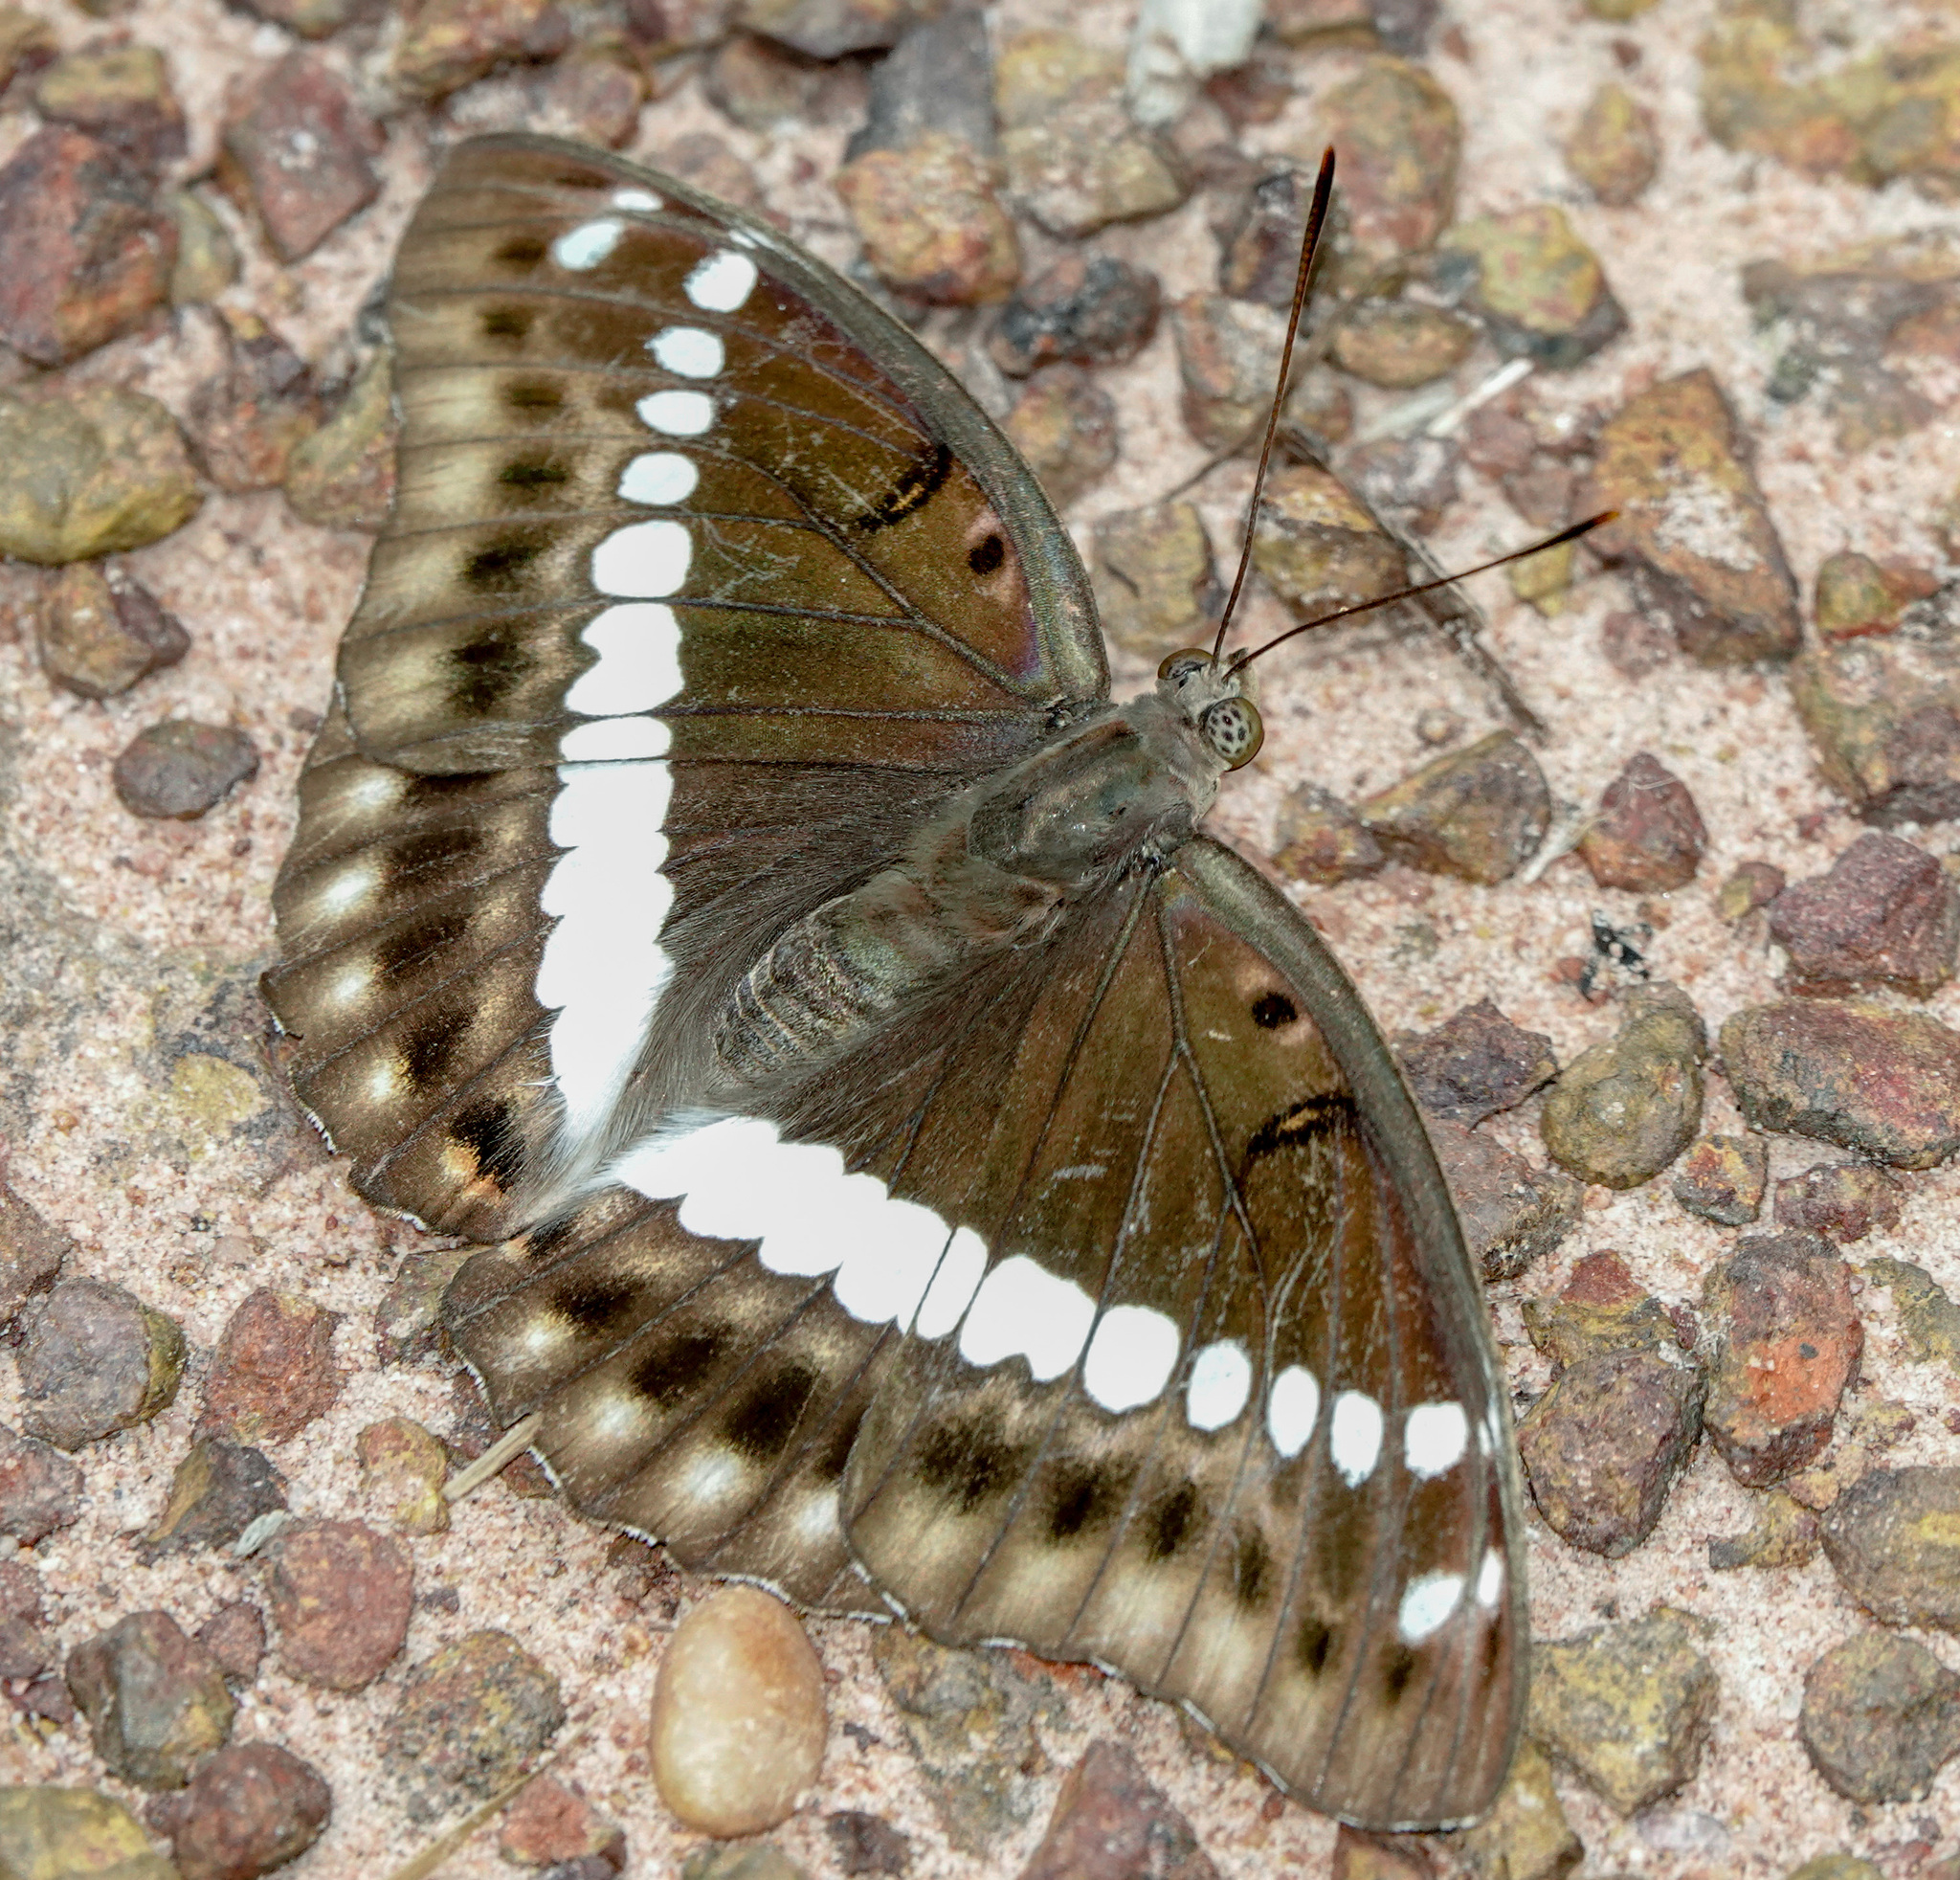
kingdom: Animalia
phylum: Arthropoda
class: Insecta
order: Lepidoptera
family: Nymphalidae
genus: Euthalia
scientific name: Euthalia Bassarona teuta
